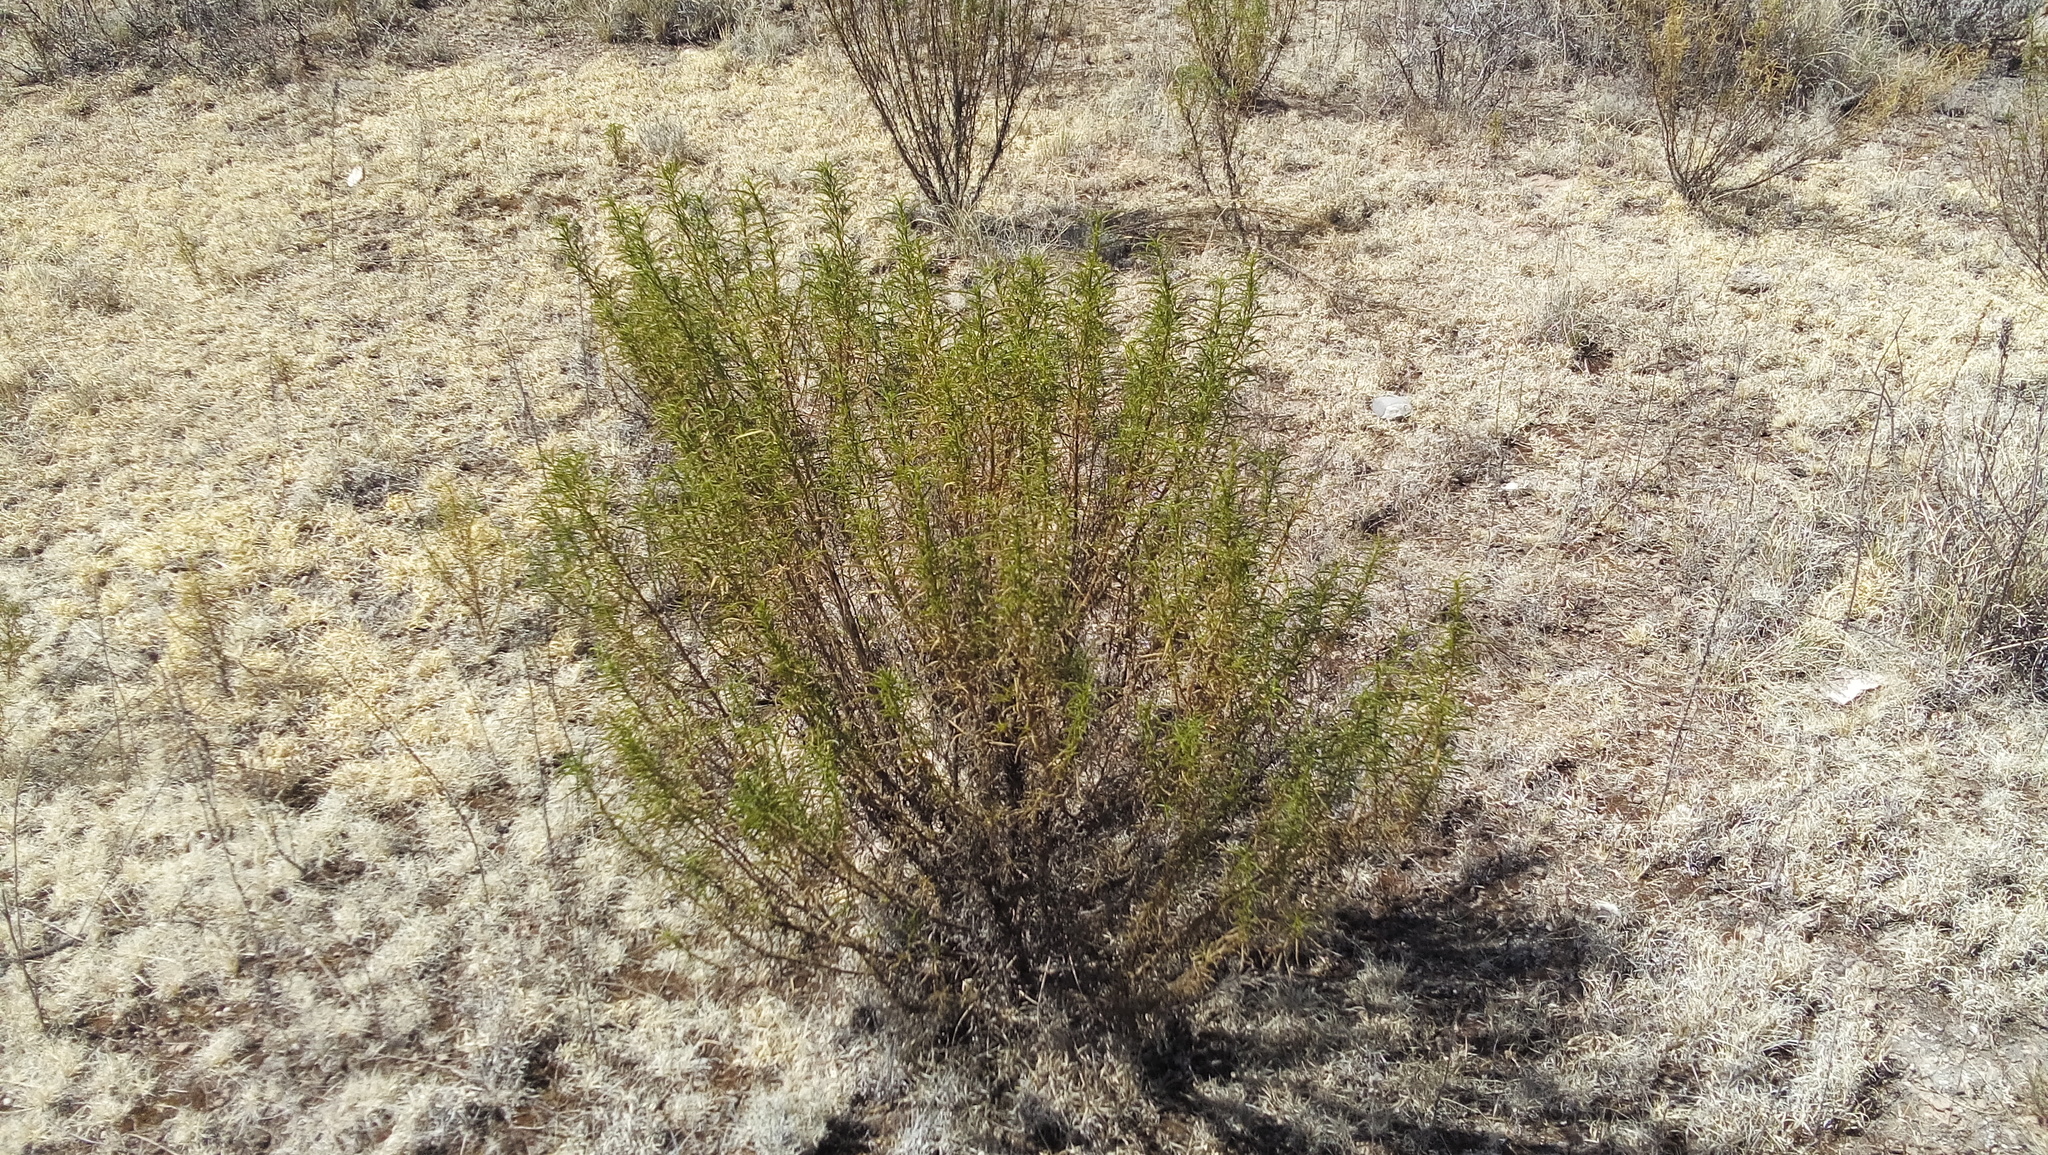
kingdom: Plantae
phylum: Tracheophyta
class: Magnoliopsida
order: Asterales
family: Asteraceae
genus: Gymnosperma
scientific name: Gymnosperma glutinosum
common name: Gumhead
